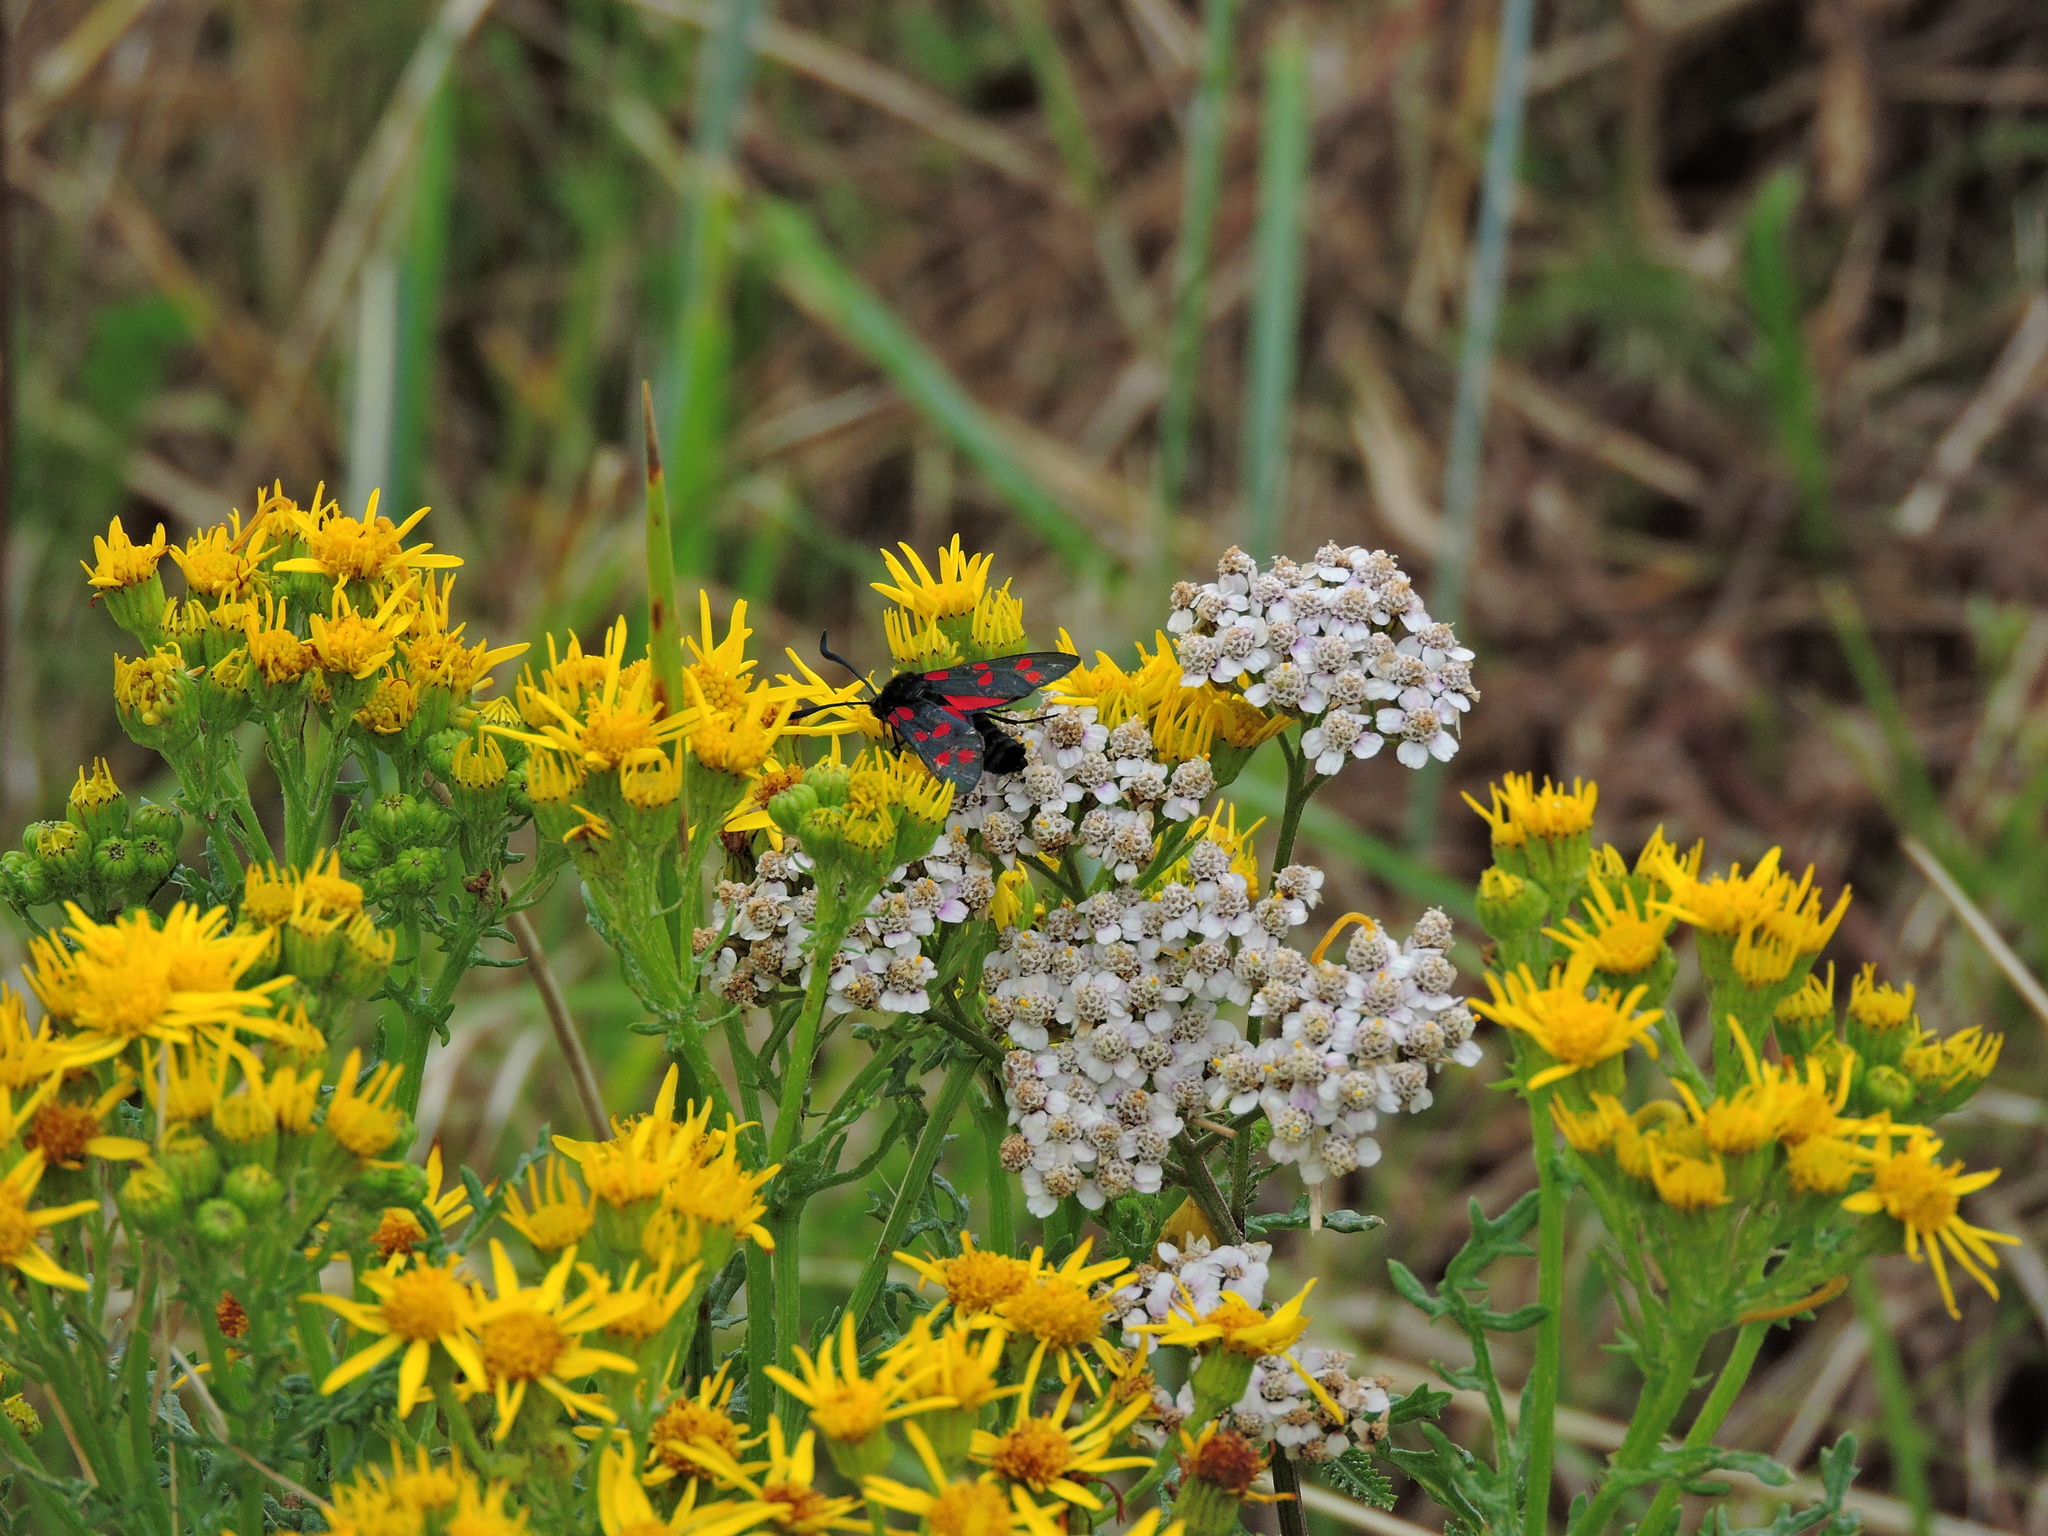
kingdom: Animalia
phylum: Arthropoda
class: Insecta
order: Lepidoptera
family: Zygaenidae
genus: Zygaena
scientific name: Zygaena filipendulae
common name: Six-spot burnet
